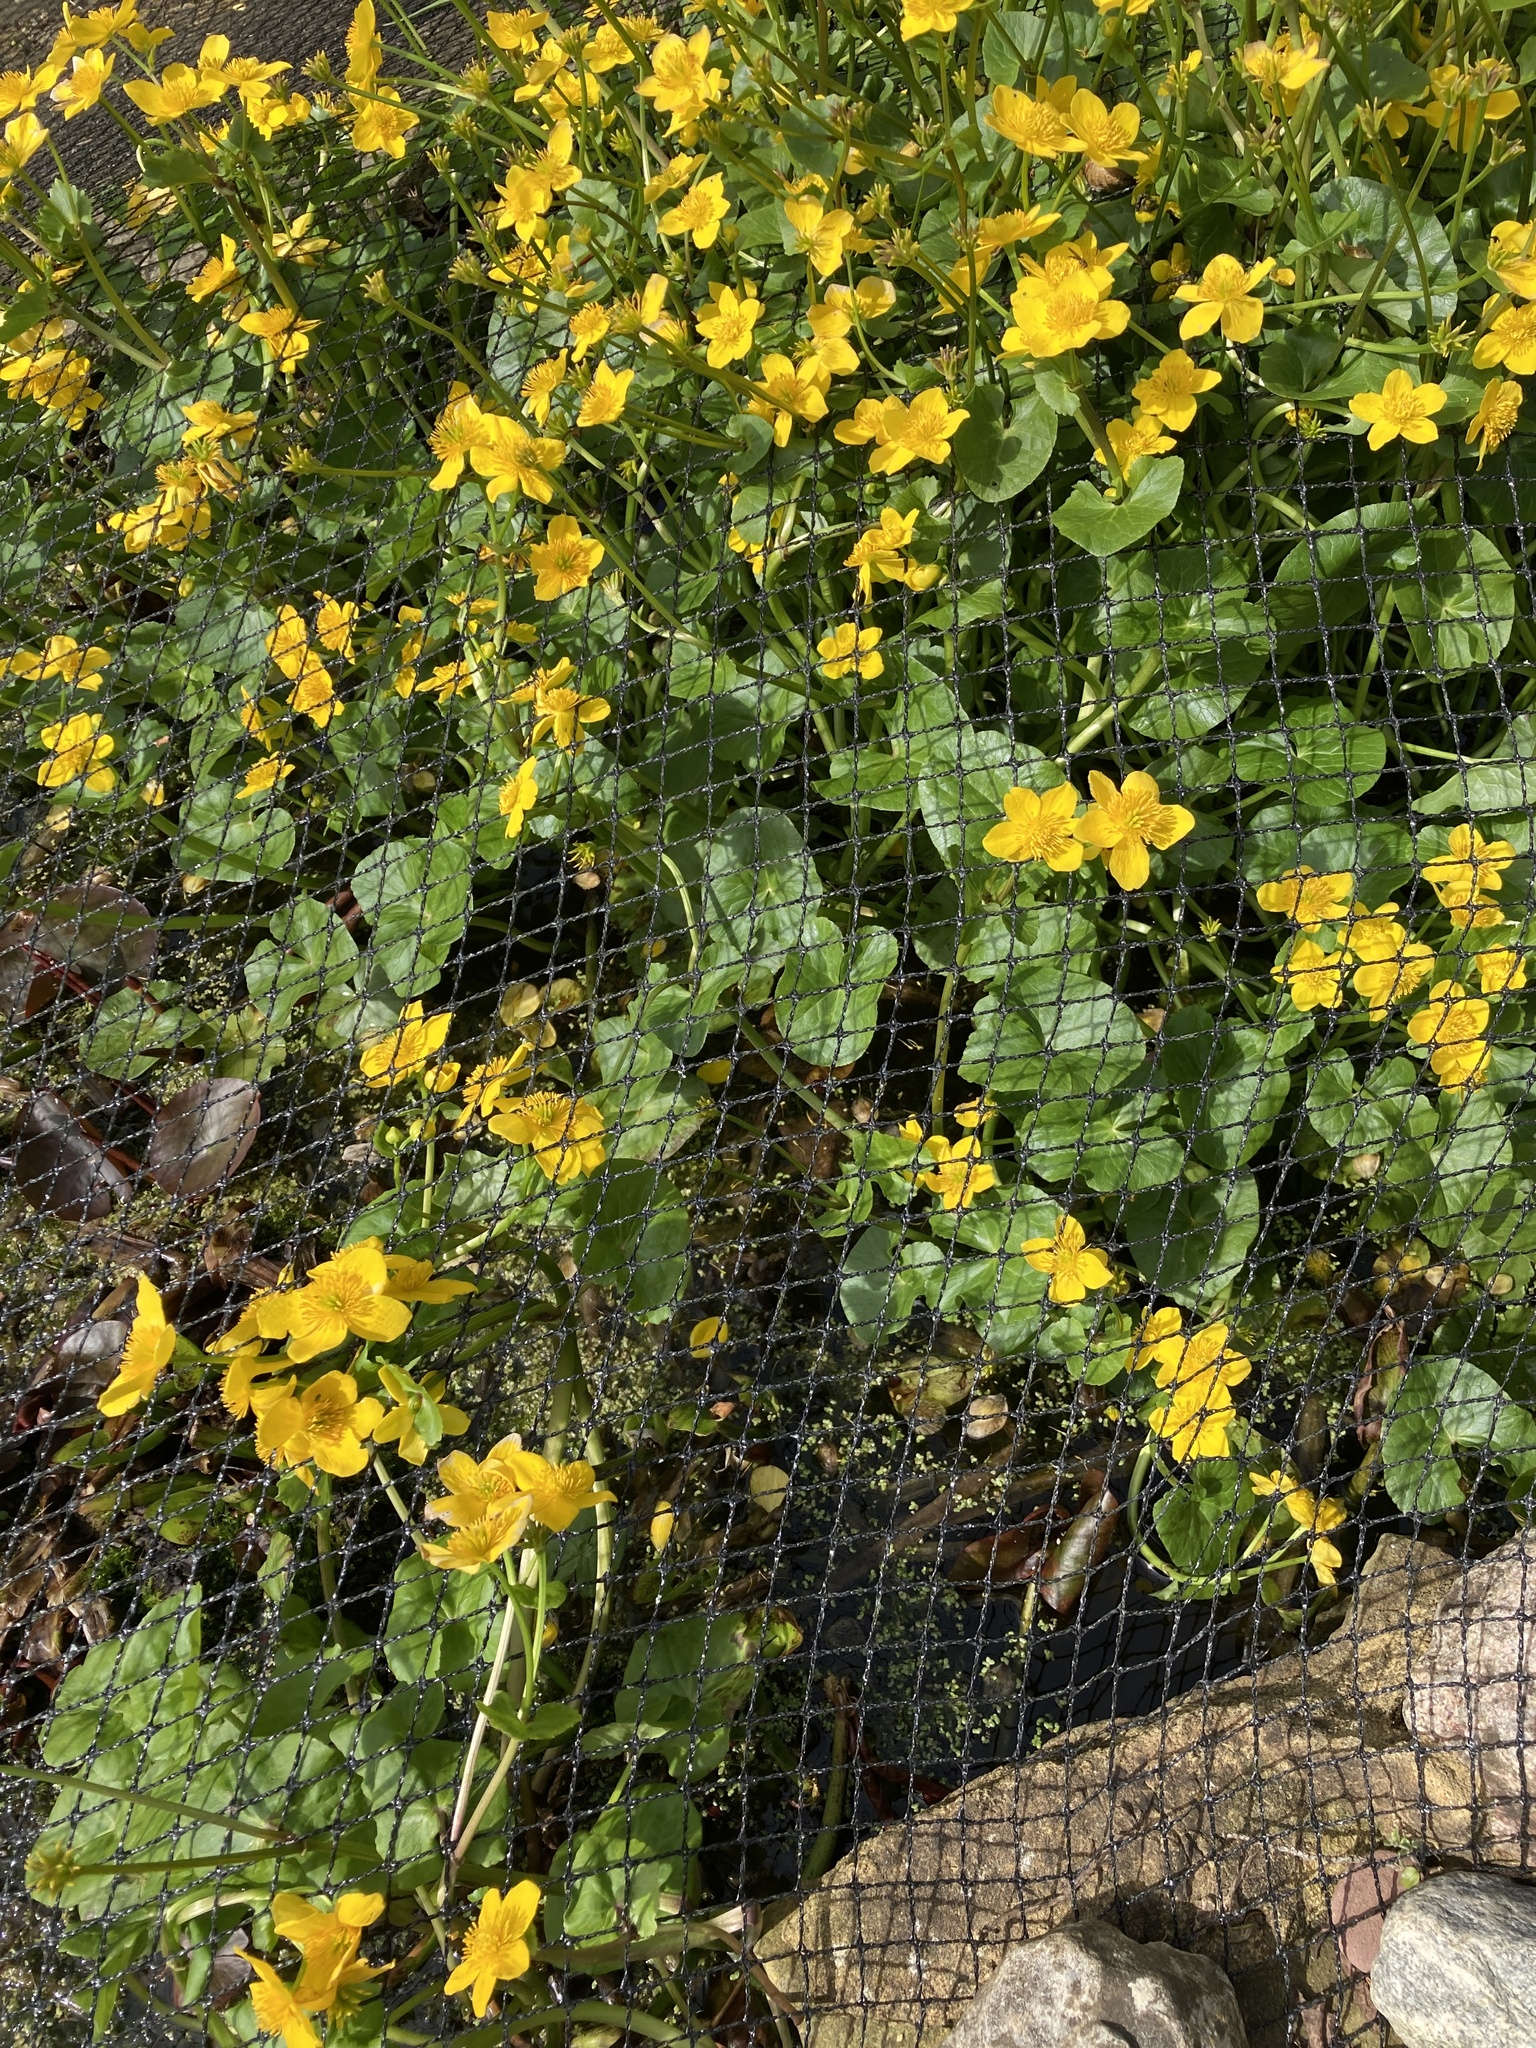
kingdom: Plantae
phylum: Tracheophyta
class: Magnoliopsida
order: Ranunculales
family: Ranunculaceae
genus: Caltha
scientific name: Caltha palustris
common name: Marsh marigold
